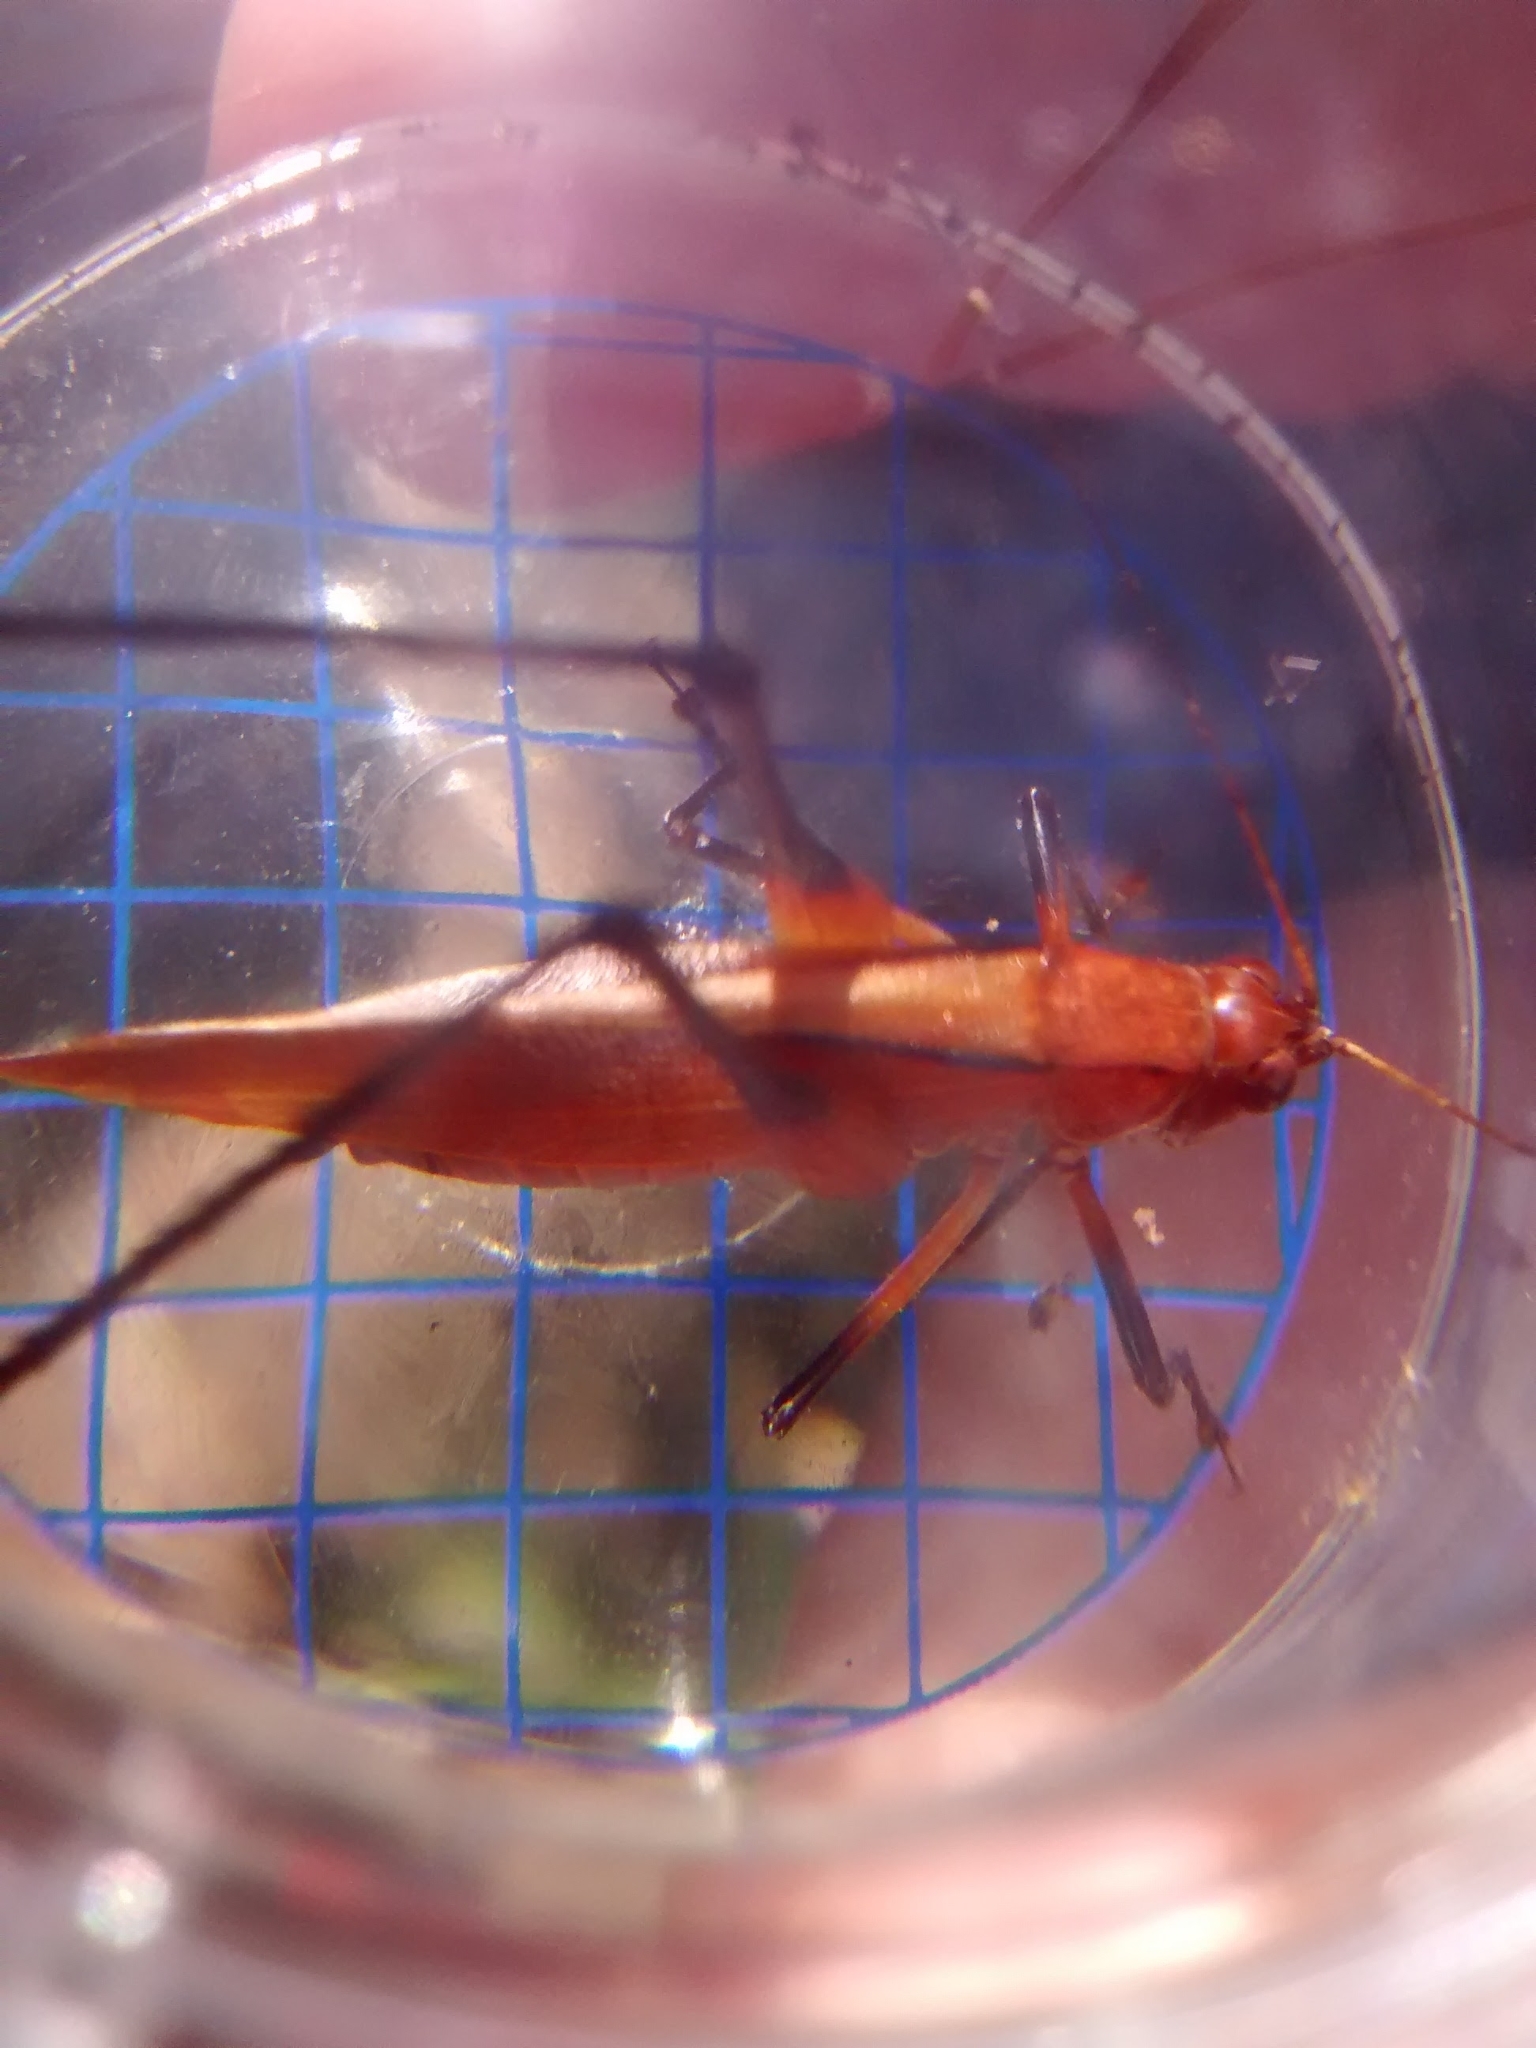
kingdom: Animalia
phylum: Arthropoda
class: Insecta
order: Orthoptera
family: Tettigoniidae
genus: Theudoria
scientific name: Theudoria melanocnemis
